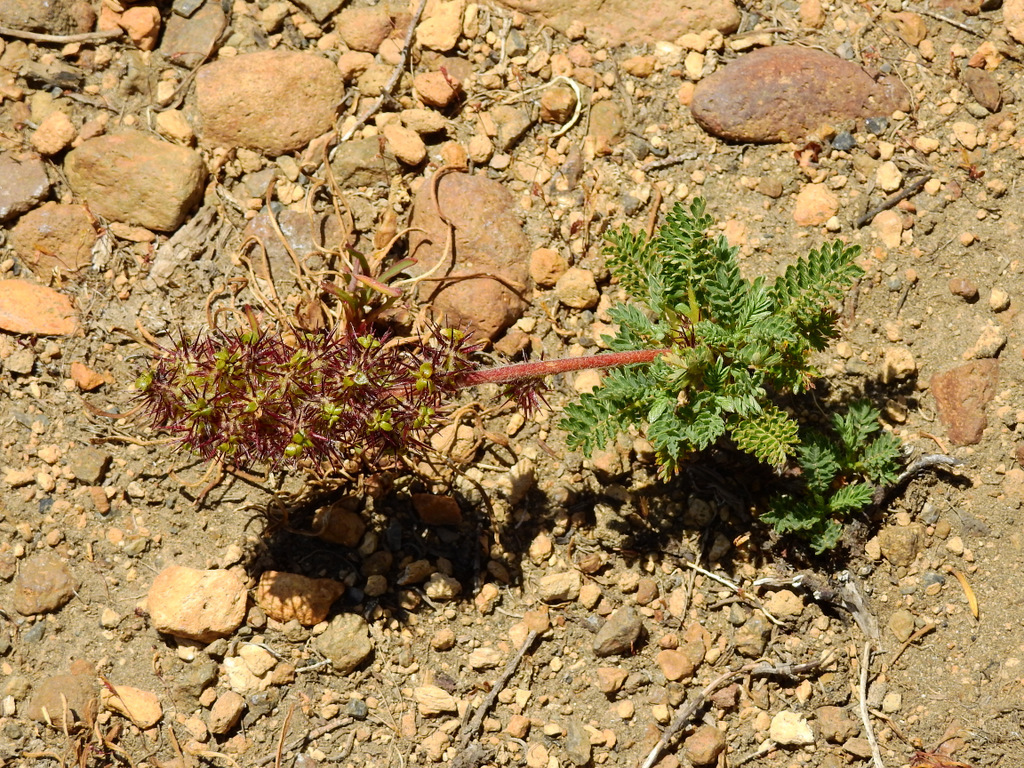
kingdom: Plantae
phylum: Tracheophyta
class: Magnoliopsida
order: Rosales
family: Rosaceae
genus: Acaena
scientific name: Acaena leptacantha
